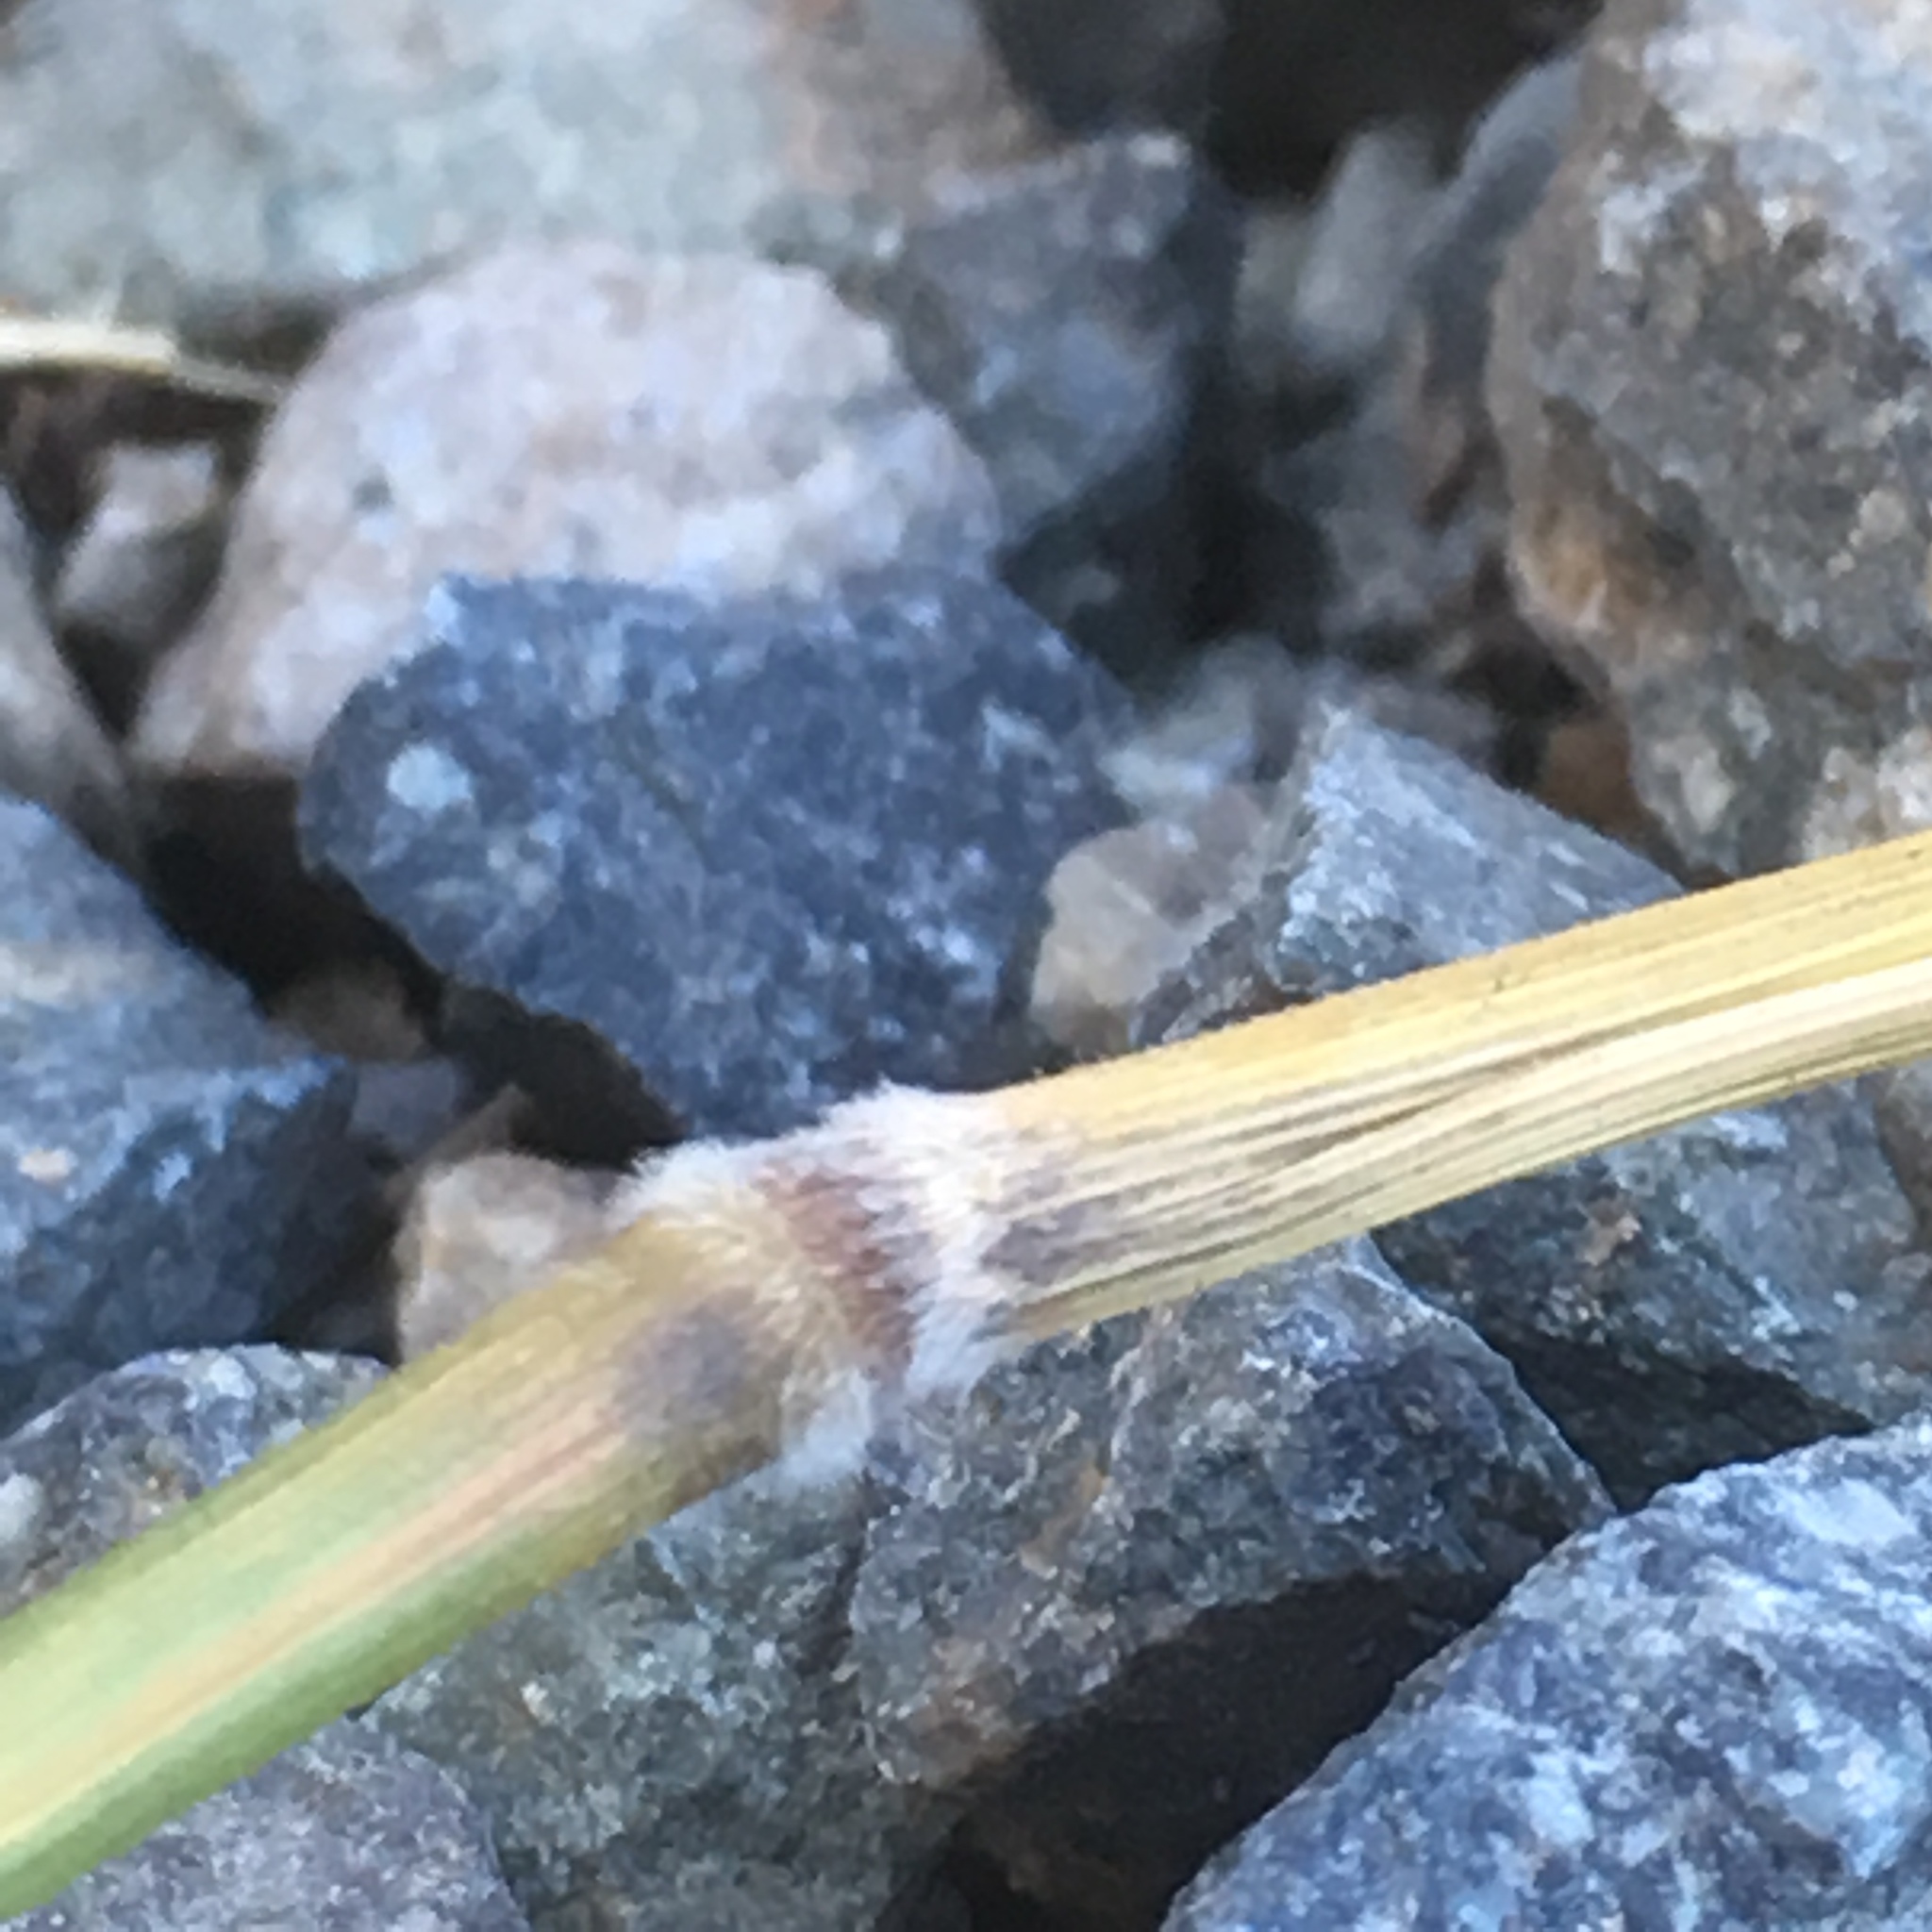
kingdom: Plantae
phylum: Tracheophyta
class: Liliopsida
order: Poales
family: Poaceae
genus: Arrhenatherum
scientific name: Arrhenatherum elatius
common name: Tall oatgrass
